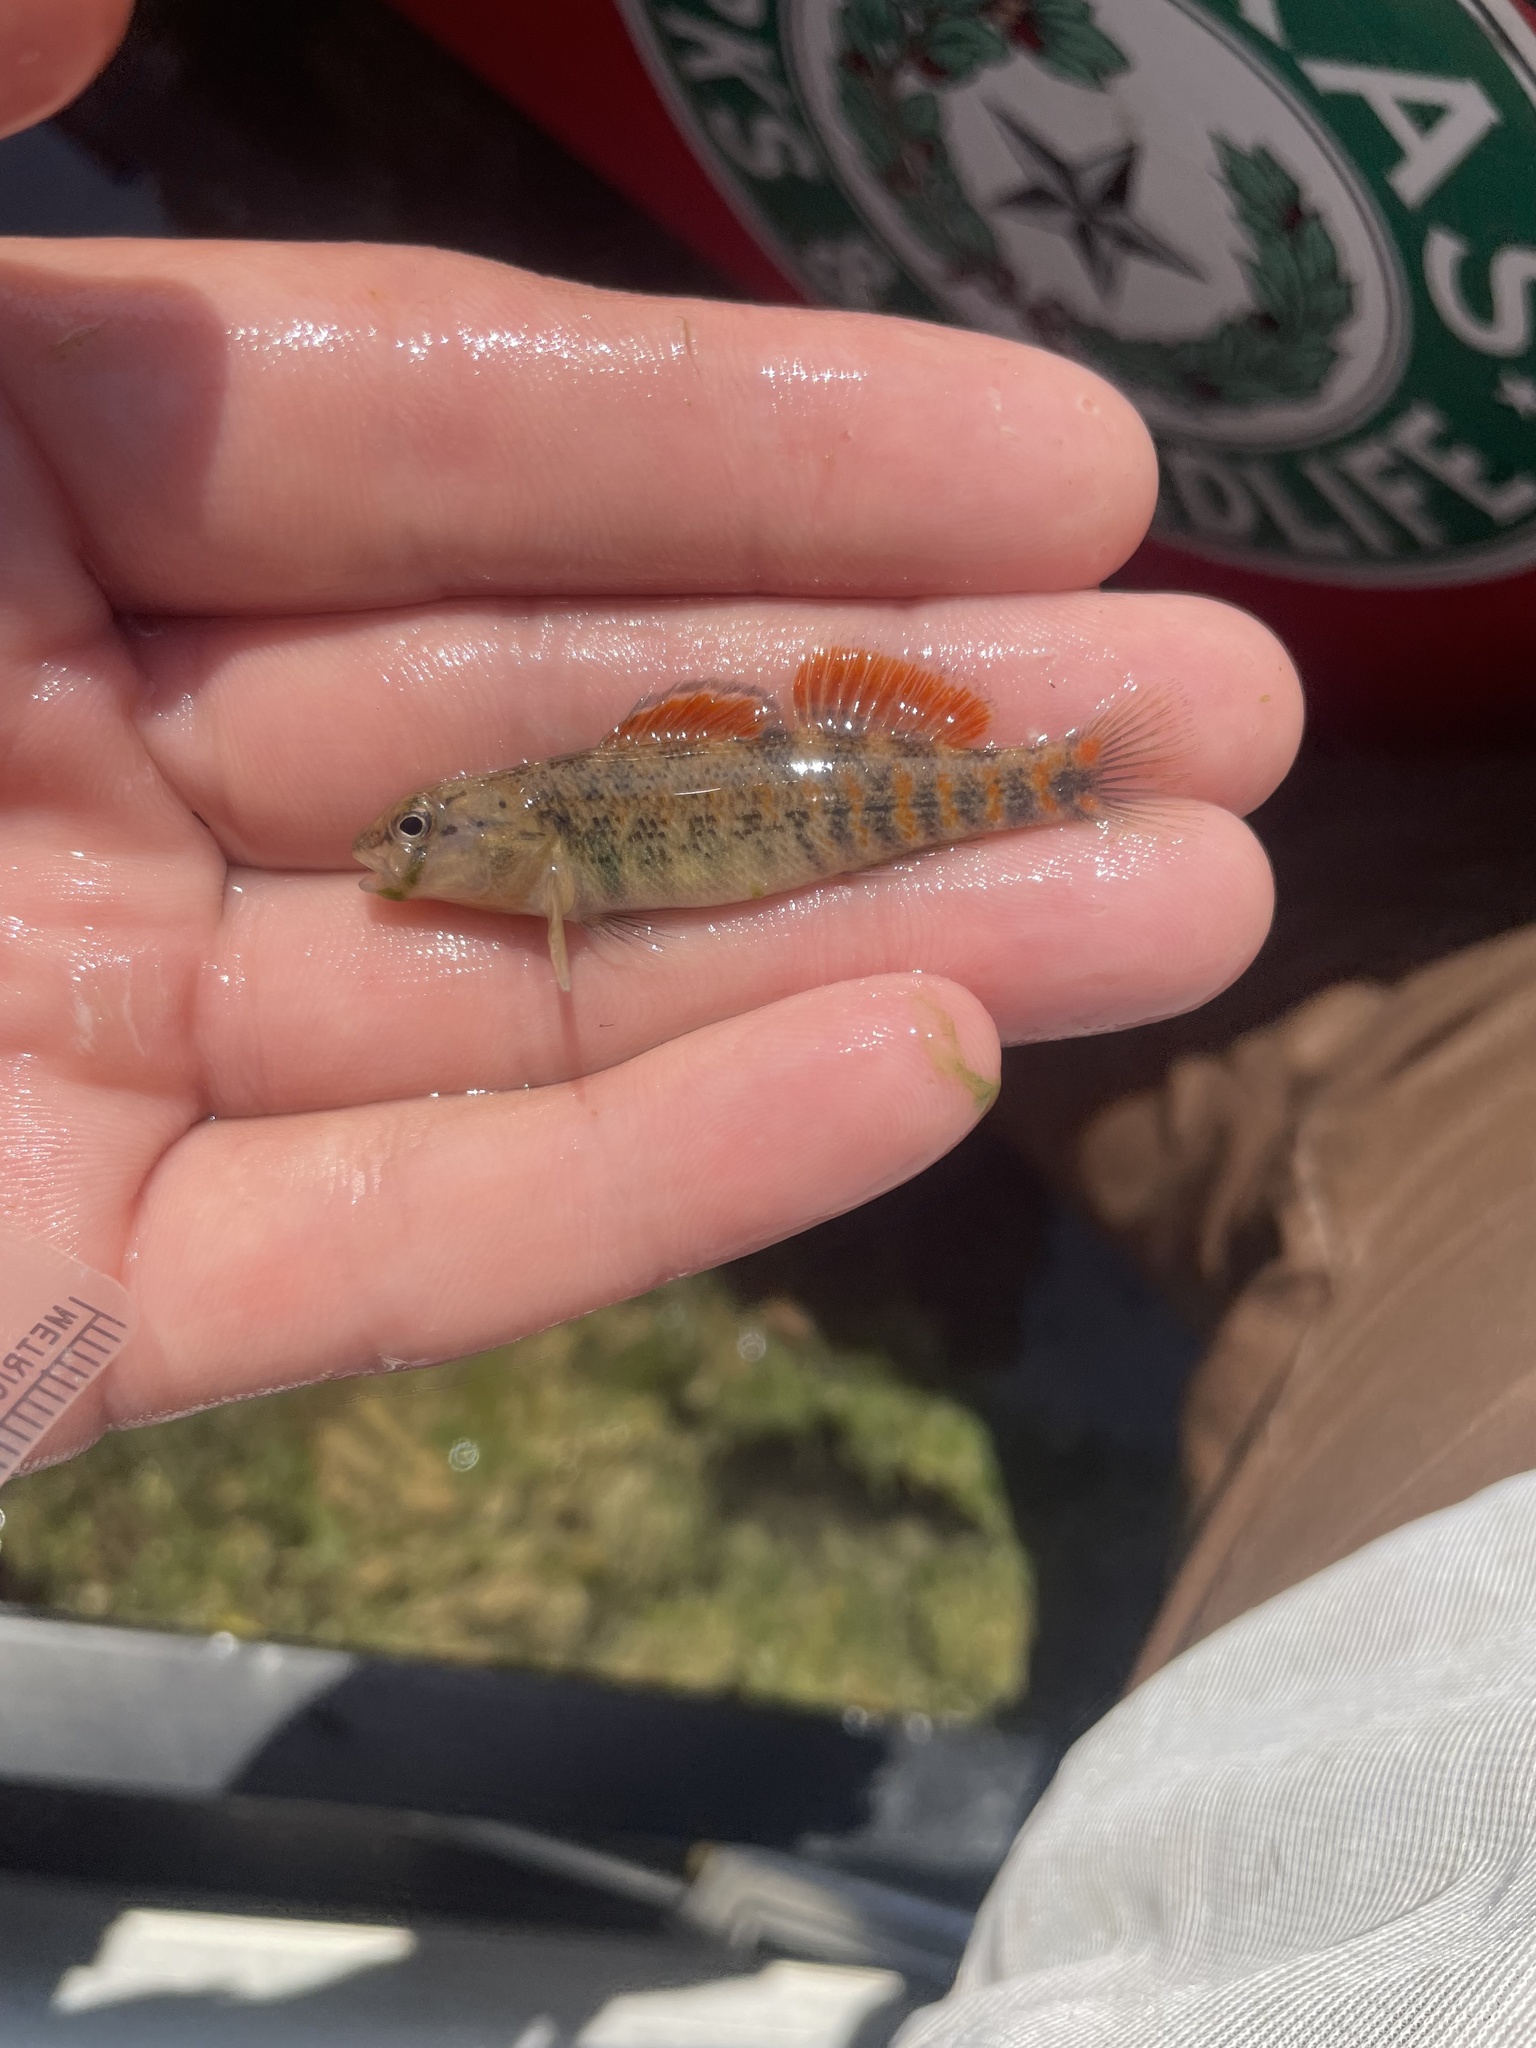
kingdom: Animalia
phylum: Chordata
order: Perciformes
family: Percidae
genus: Etheostoma
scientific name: Etheostoma pulchellum
